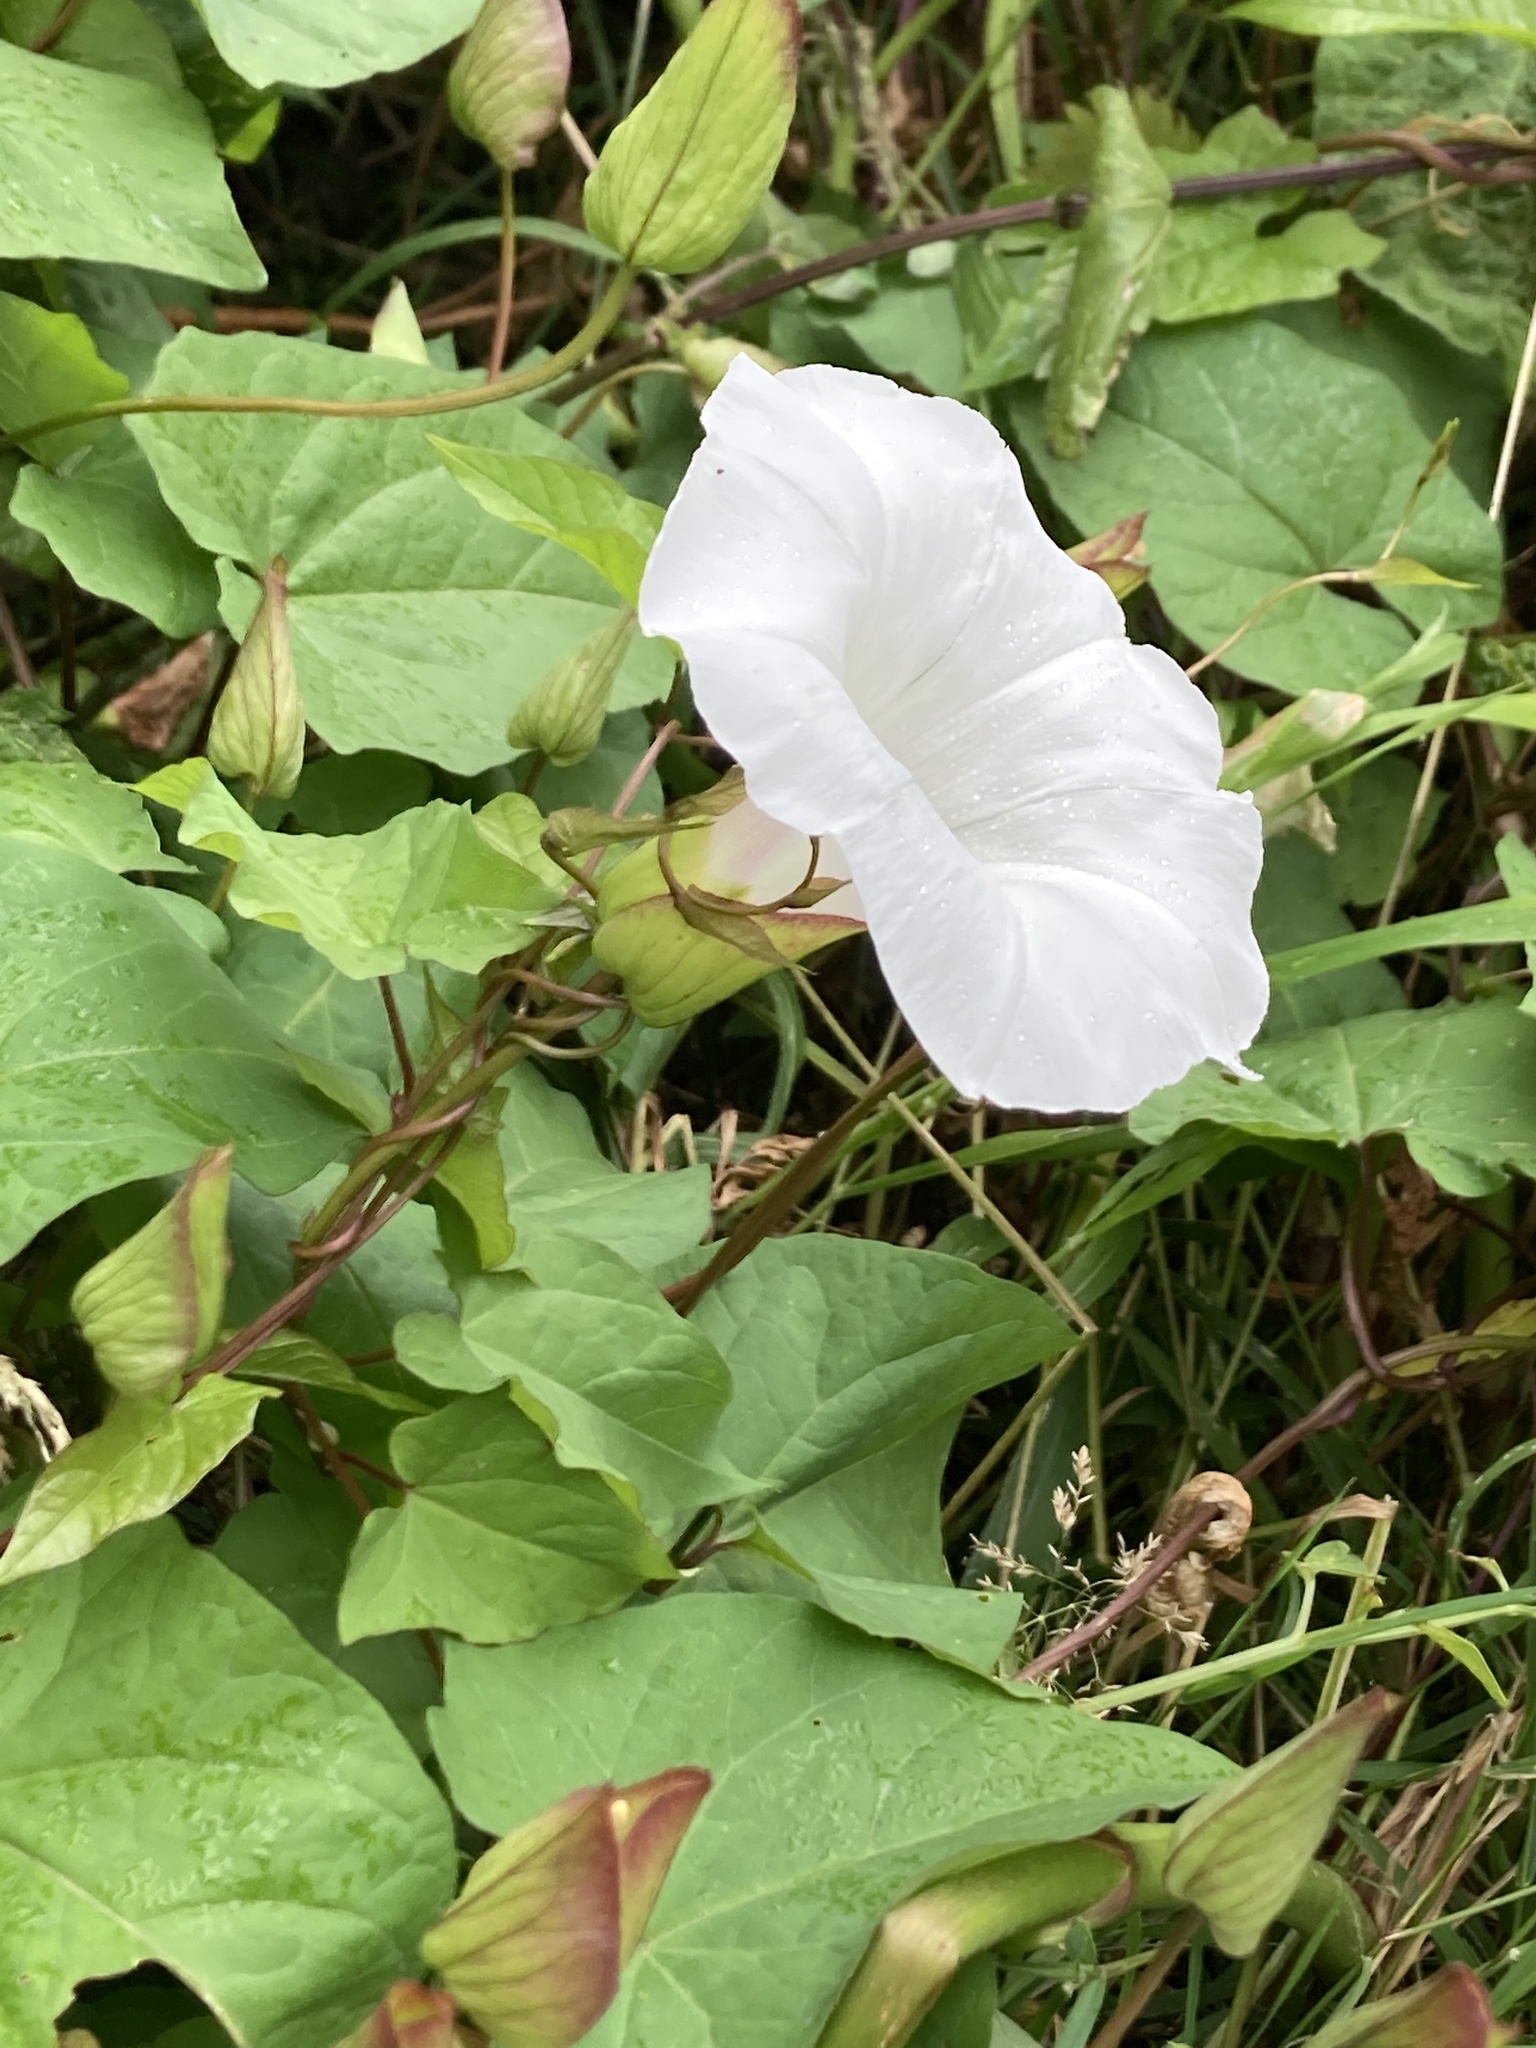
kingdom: Plantae
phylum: Tracheophyta
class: Magnoliopsida
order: Solanales
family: Convolvulaceae
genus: Calystegia
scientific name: Calystegia silvatica
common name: Large bindweed
